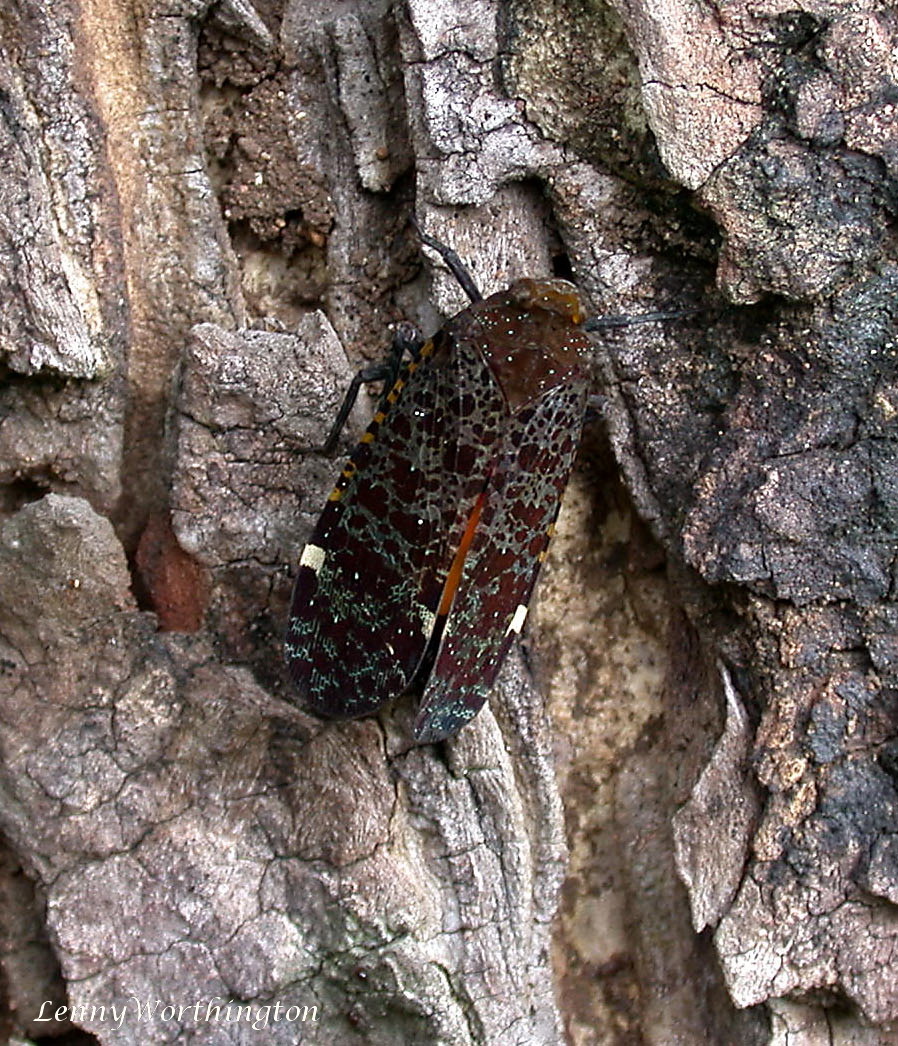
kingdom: Animalia
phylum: Arthropoda
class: Insecta
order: Hemiptera
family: Fulgoridae
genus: Penthicodes
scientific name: Penthicodes variegata
